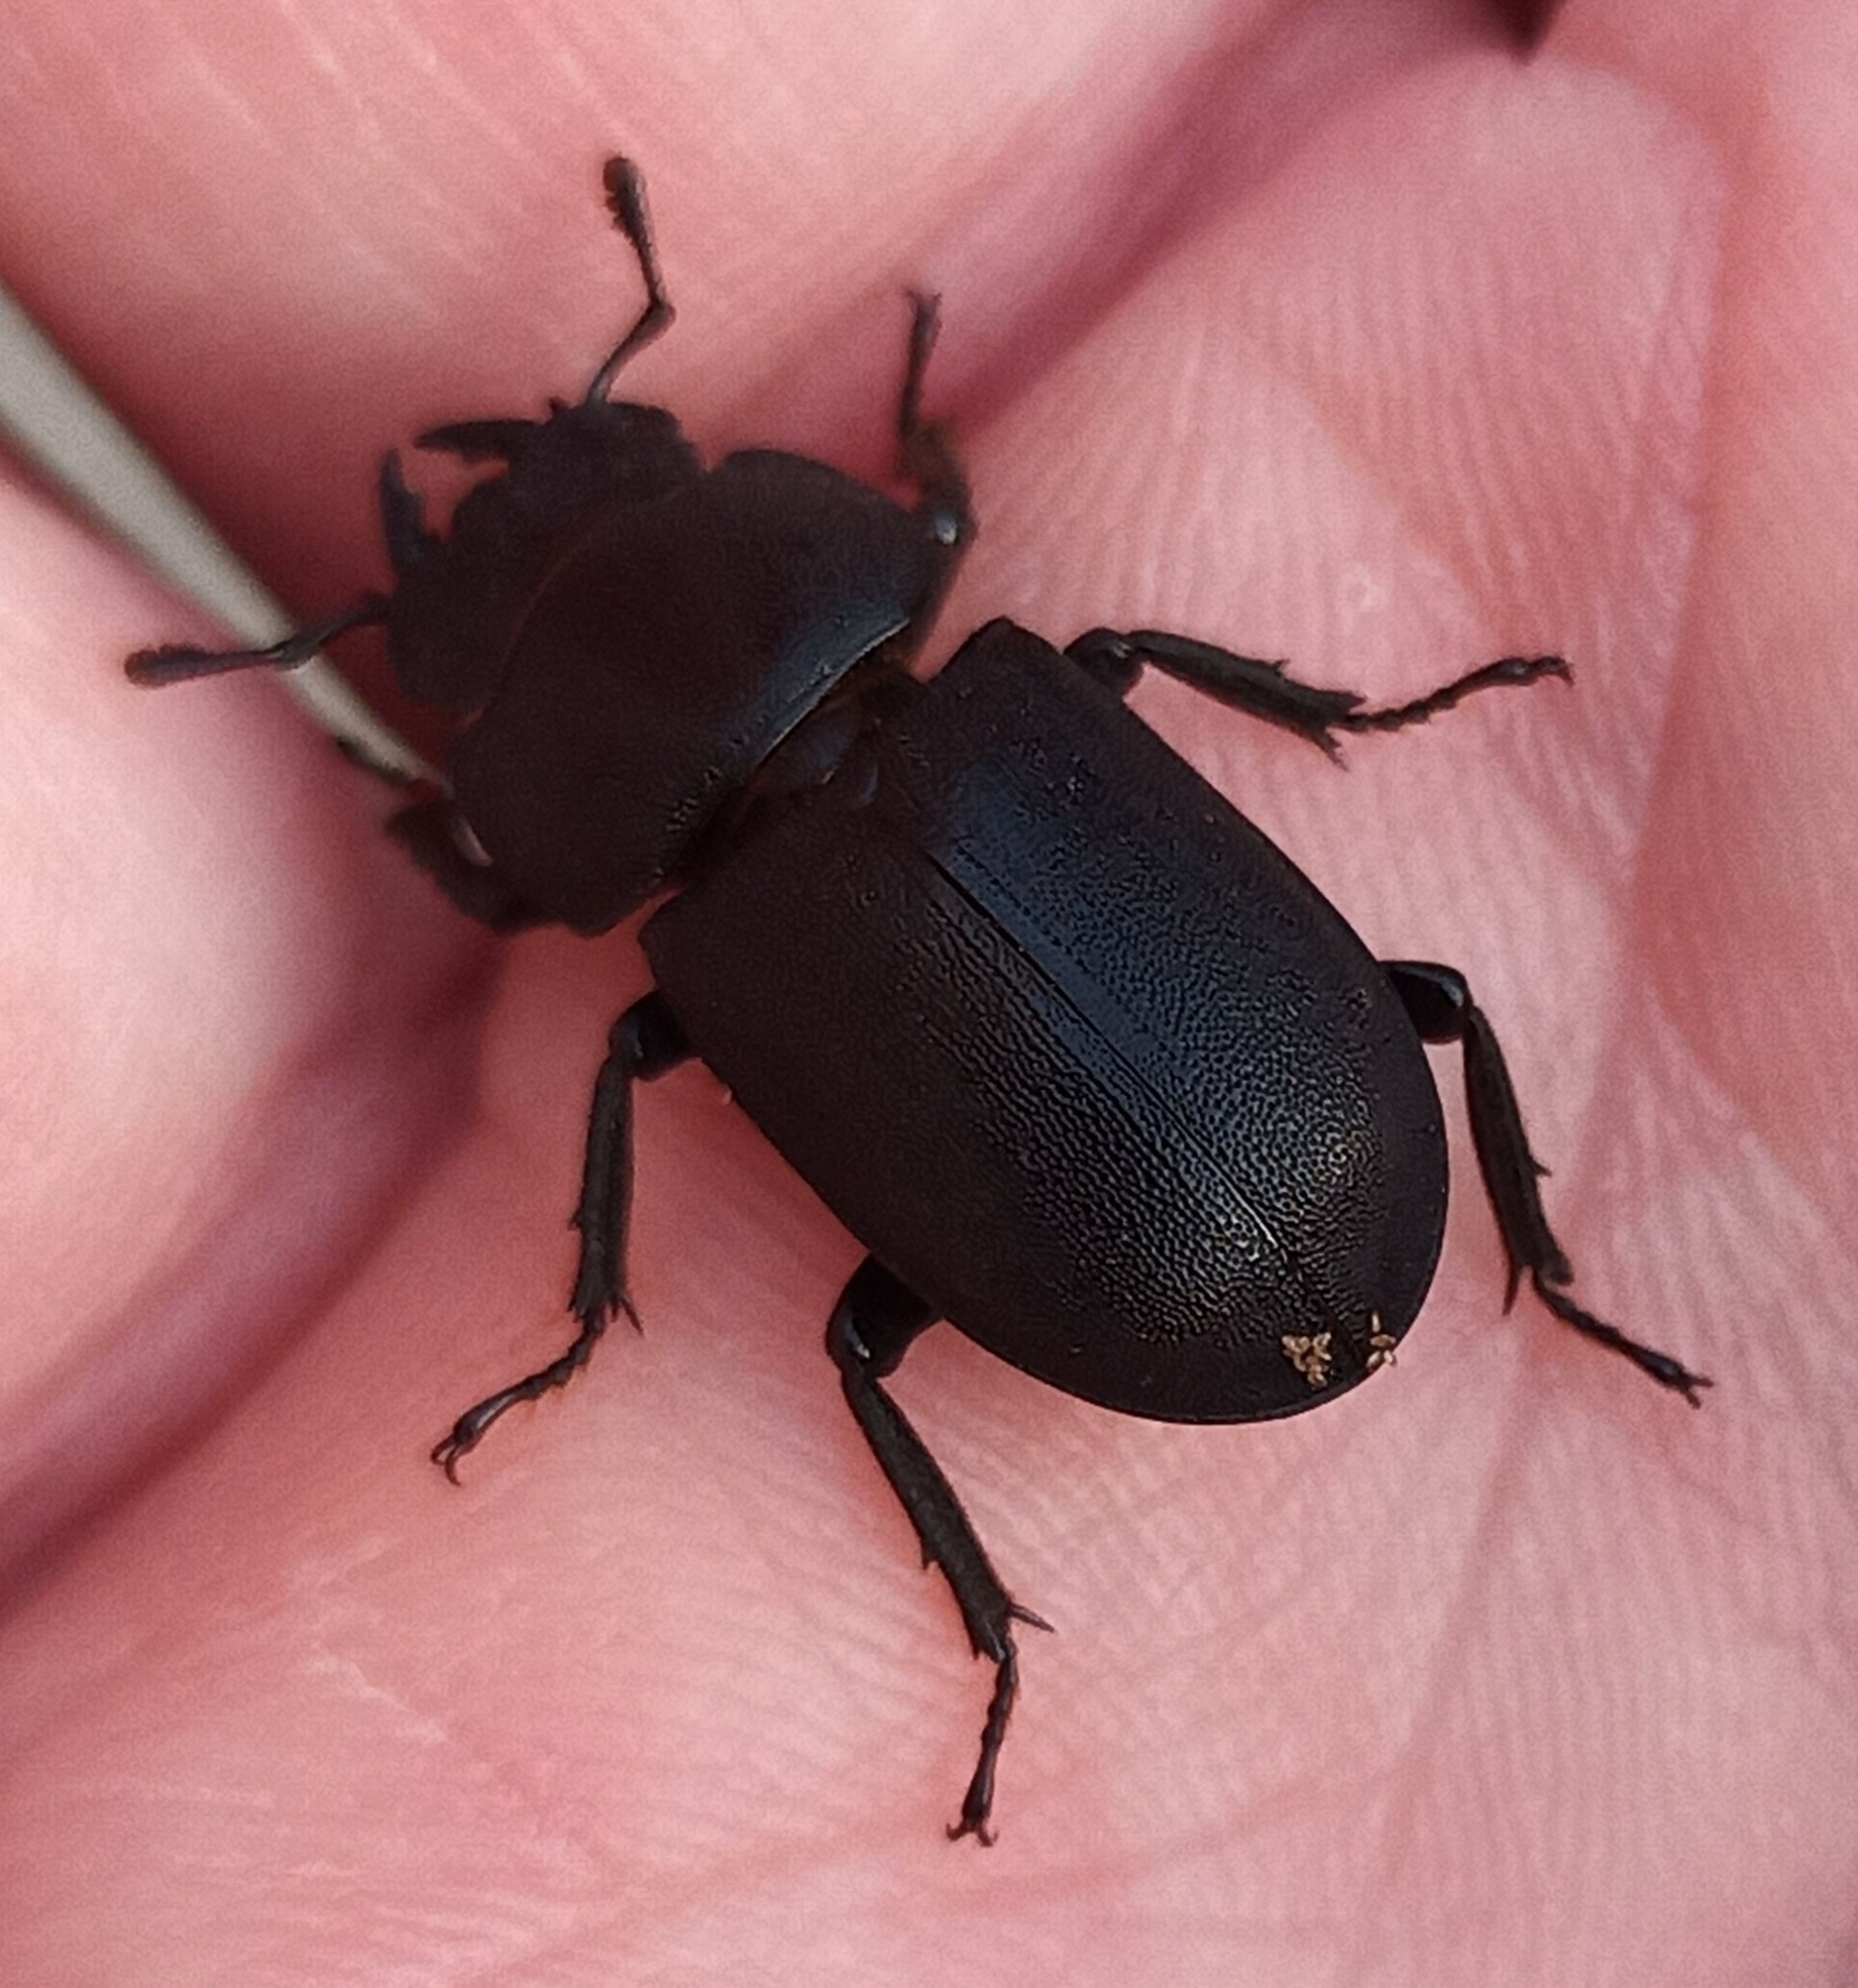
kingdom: Animalia
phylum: Arthropoda
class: Insecta
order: Coleoptera
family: Lucanidae
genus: Dorcus
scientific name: Dorcus parallelipipedus
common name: Lesser stag beetle
